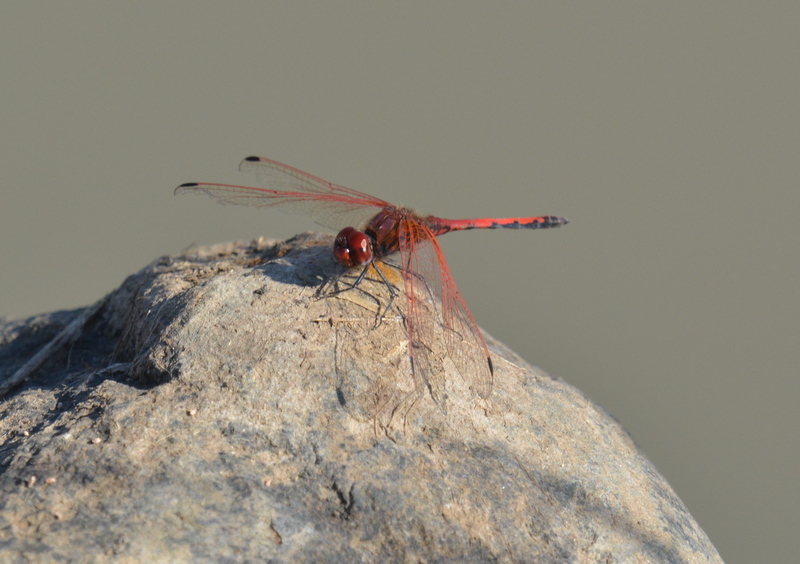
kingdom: Animalia
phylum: Arthropoda
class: Insecta
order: Odonata
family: Libellulidae
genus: Trithemis
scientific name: Trithemis arteriosa
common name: Red-veined dropwing
